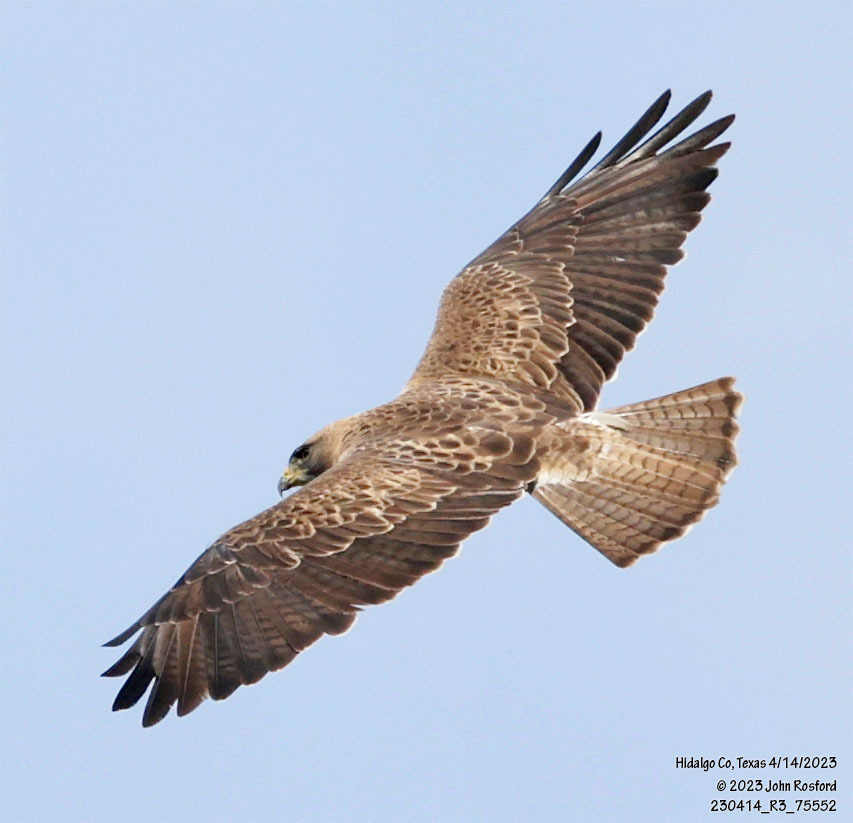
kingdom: Animalia
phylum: Chordata
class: Aves
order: Accipitriformes
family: Accipitridae
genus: Buteo
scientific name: Buteo swainsoni
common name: Swainson's hawk
